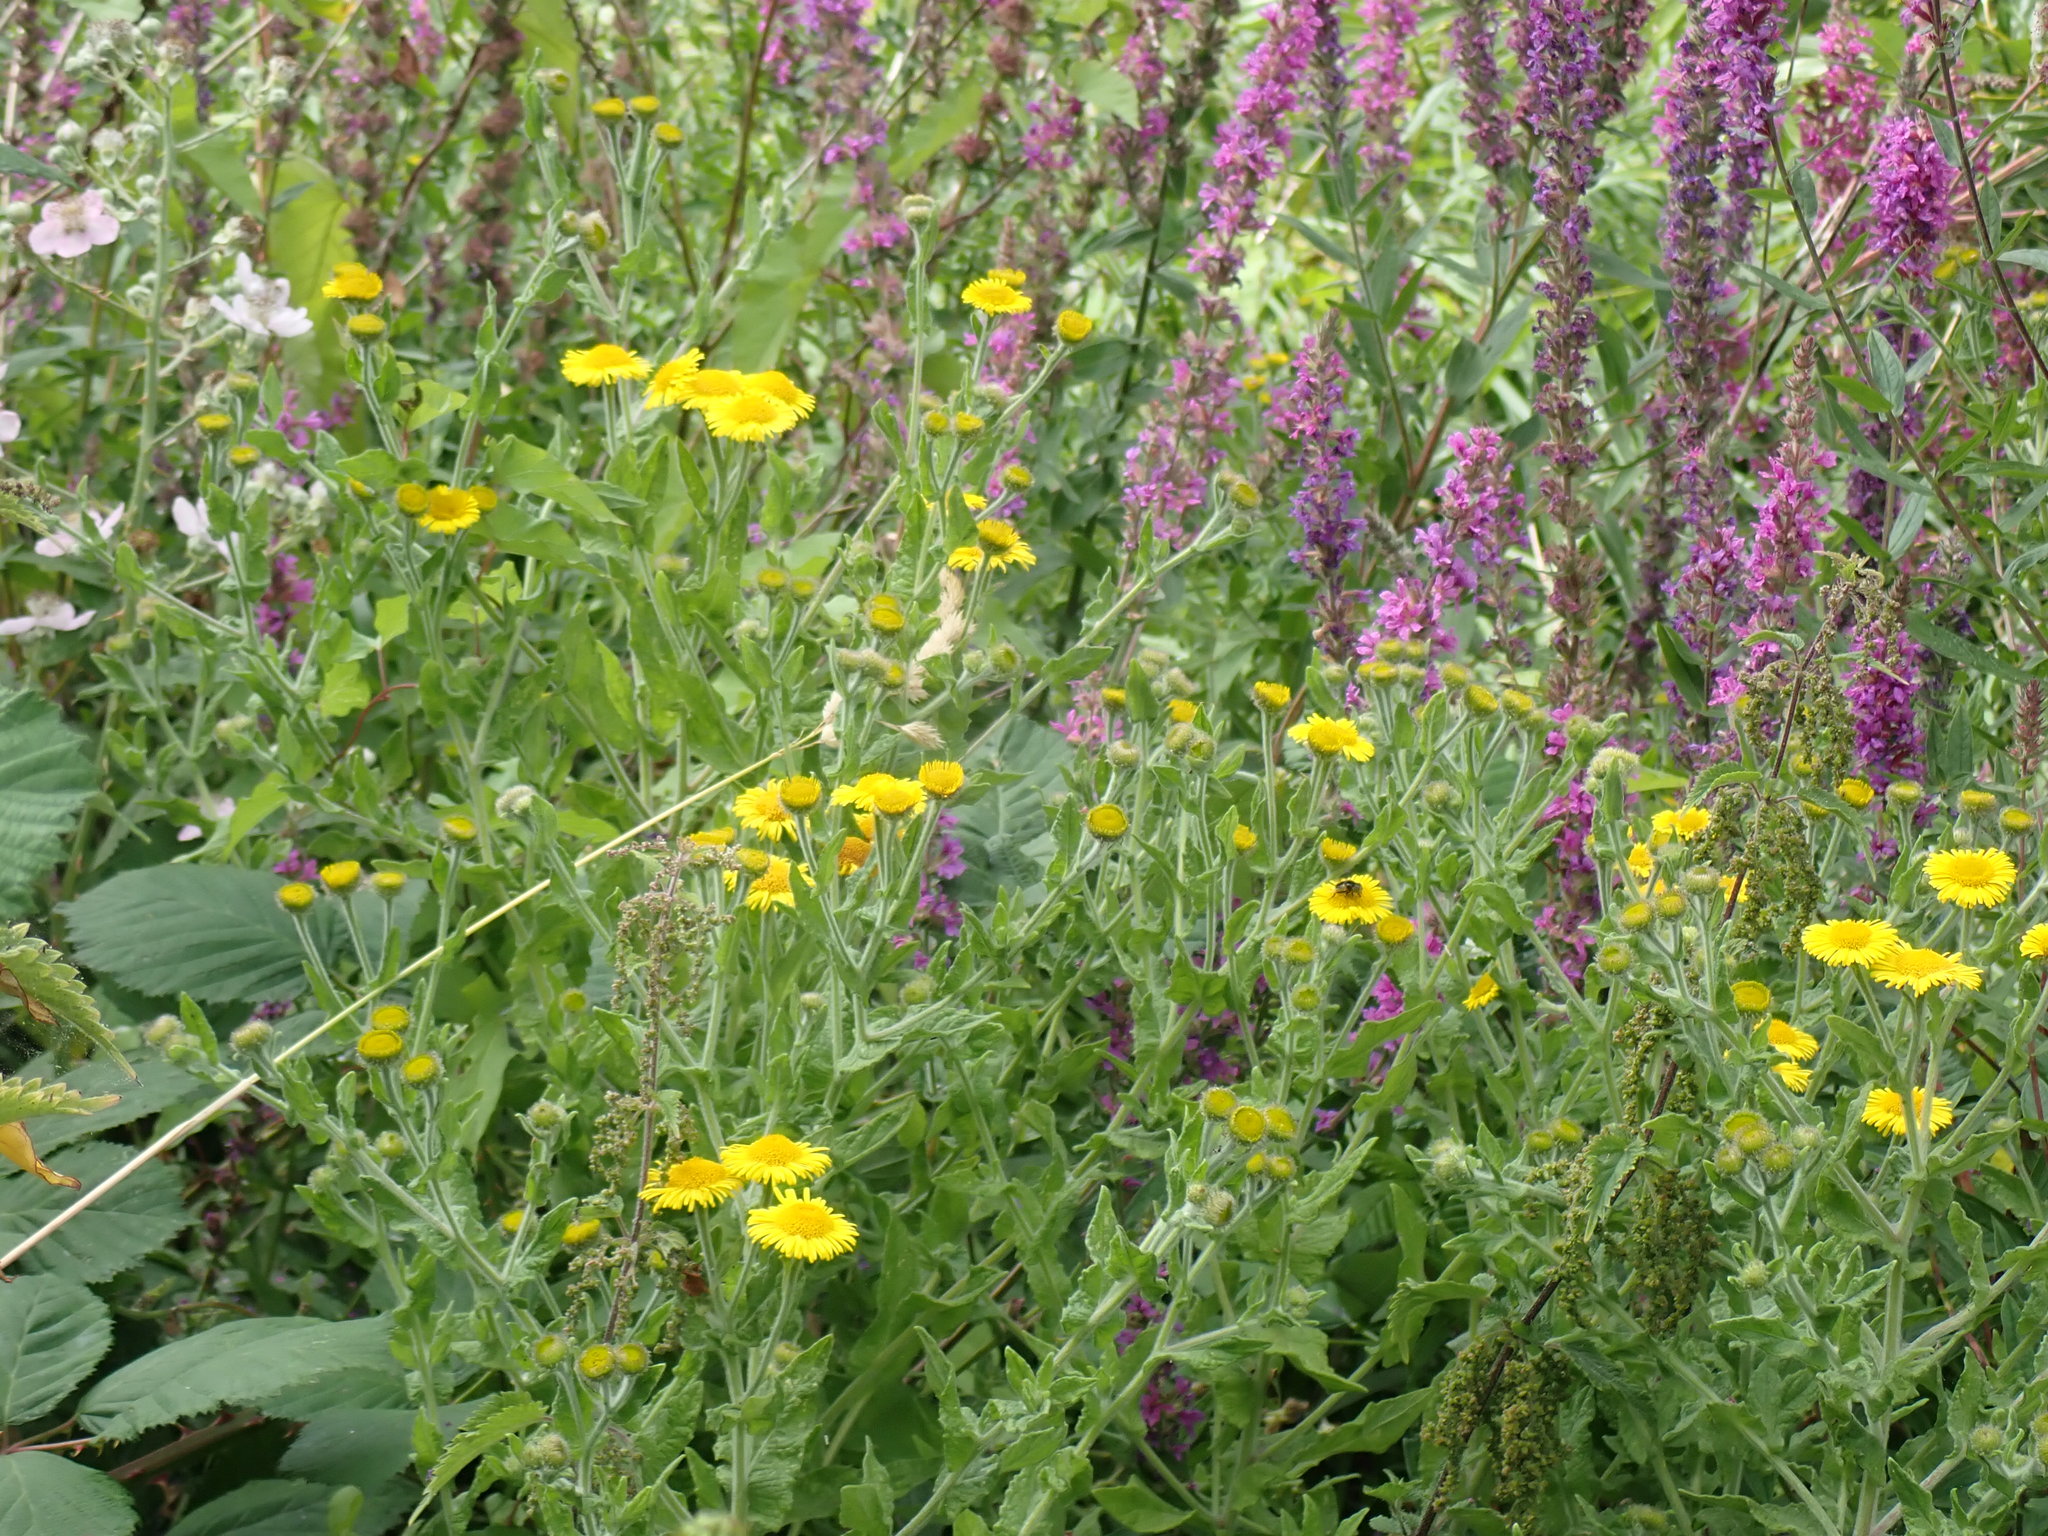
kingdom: Plantae
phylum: Tracheophyta
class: Magnoliopsida
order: Asterales
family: Asteraceae
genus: Pulicaria
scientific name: Pulicaria dysenterica
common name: Common fleabane
